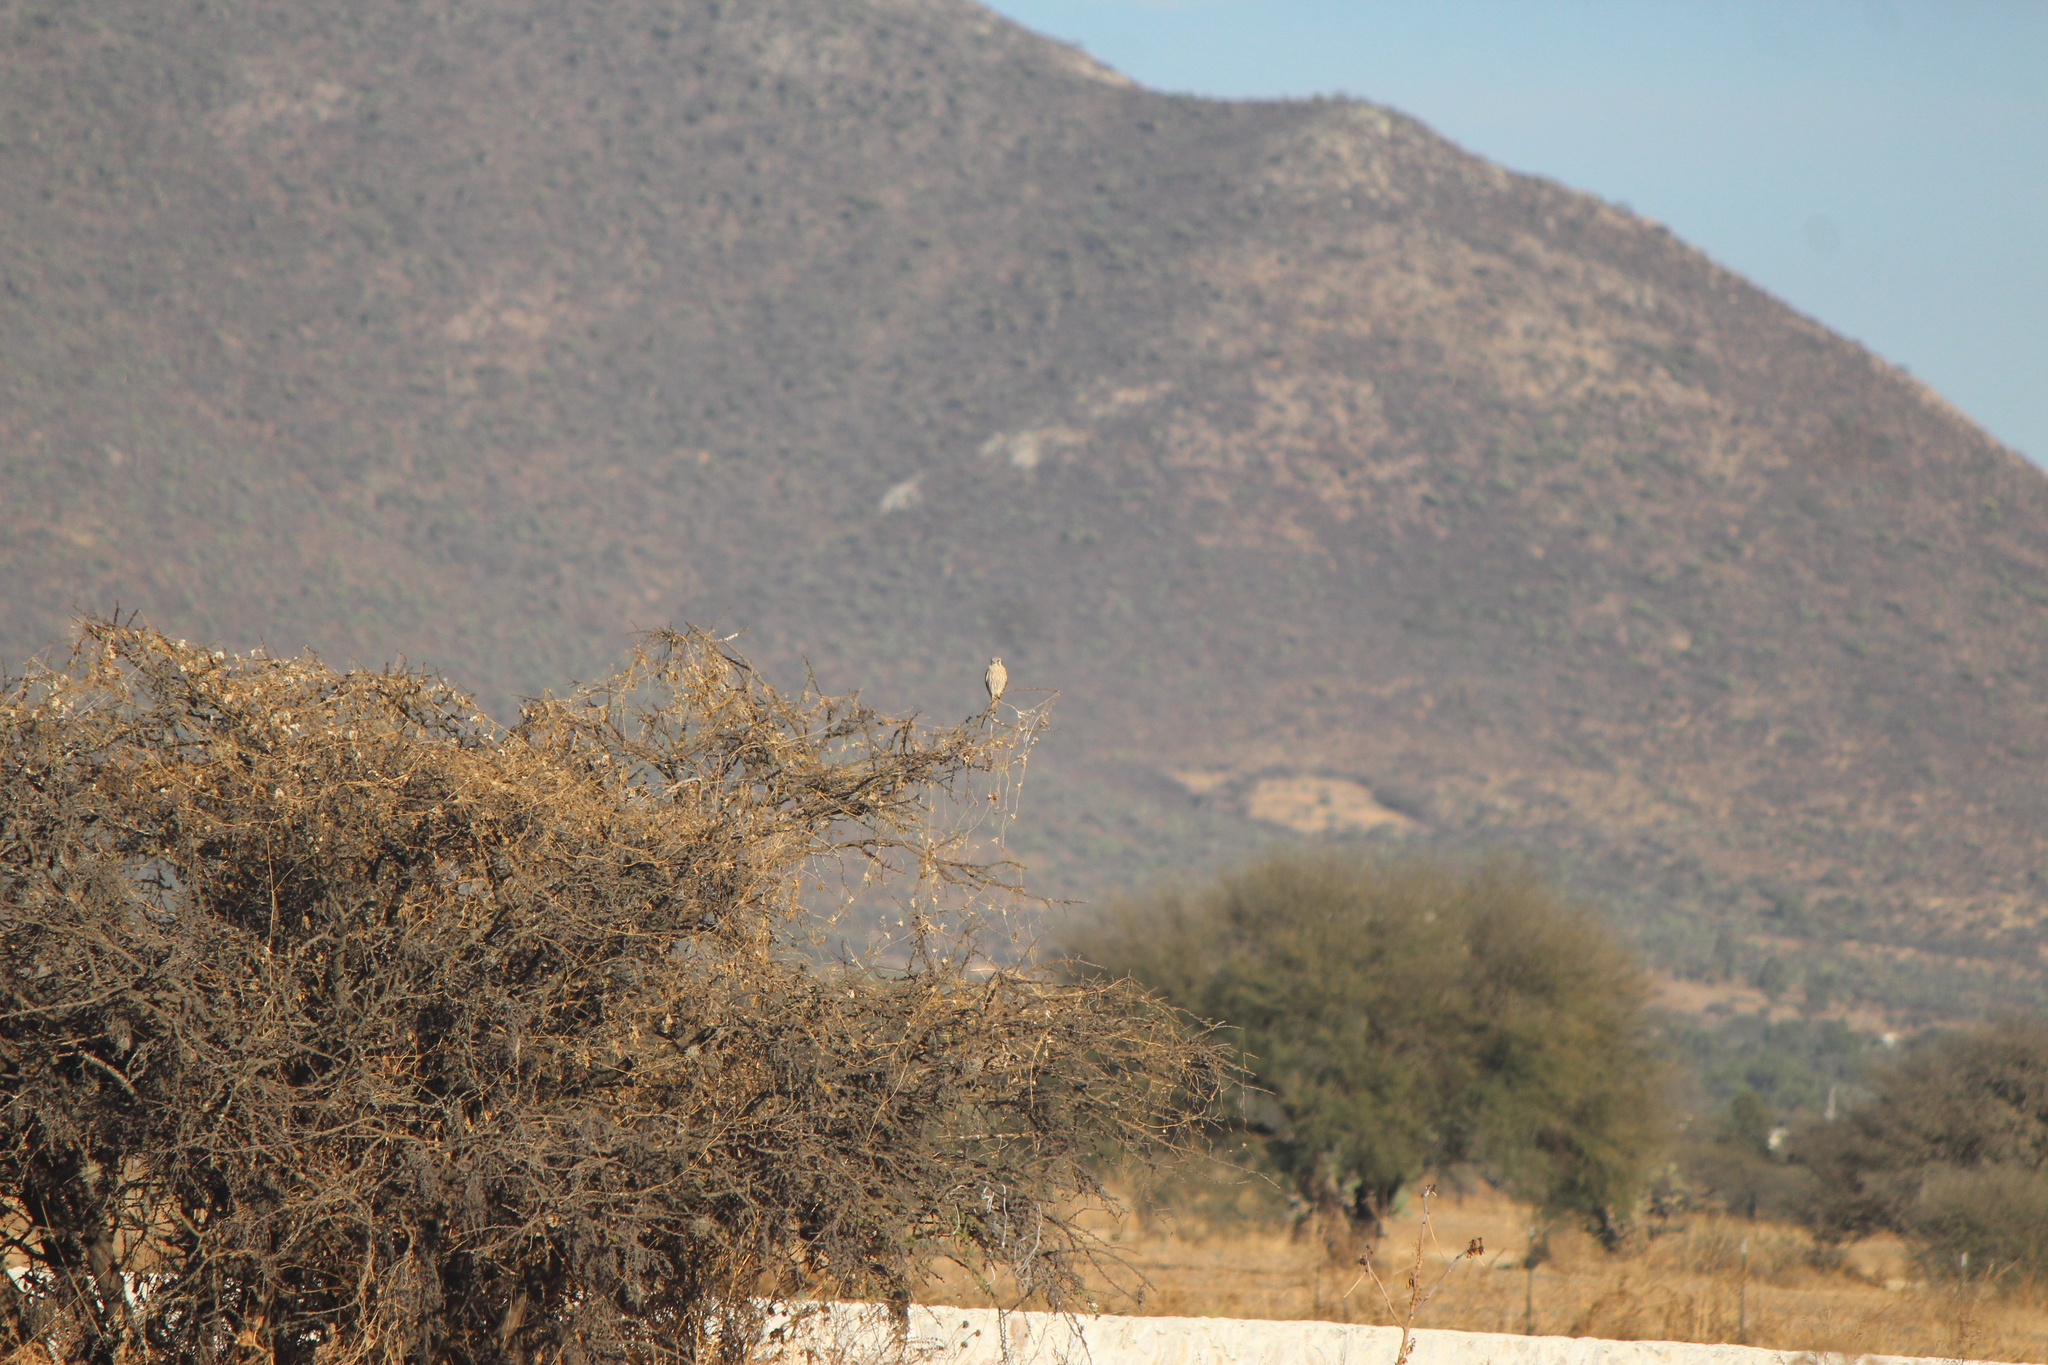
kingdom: Animalia
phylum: Chordata
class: Aves
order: Falconiformes
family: Falconidae
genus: Falco
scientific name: Falco sparverius
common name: American kestrel
